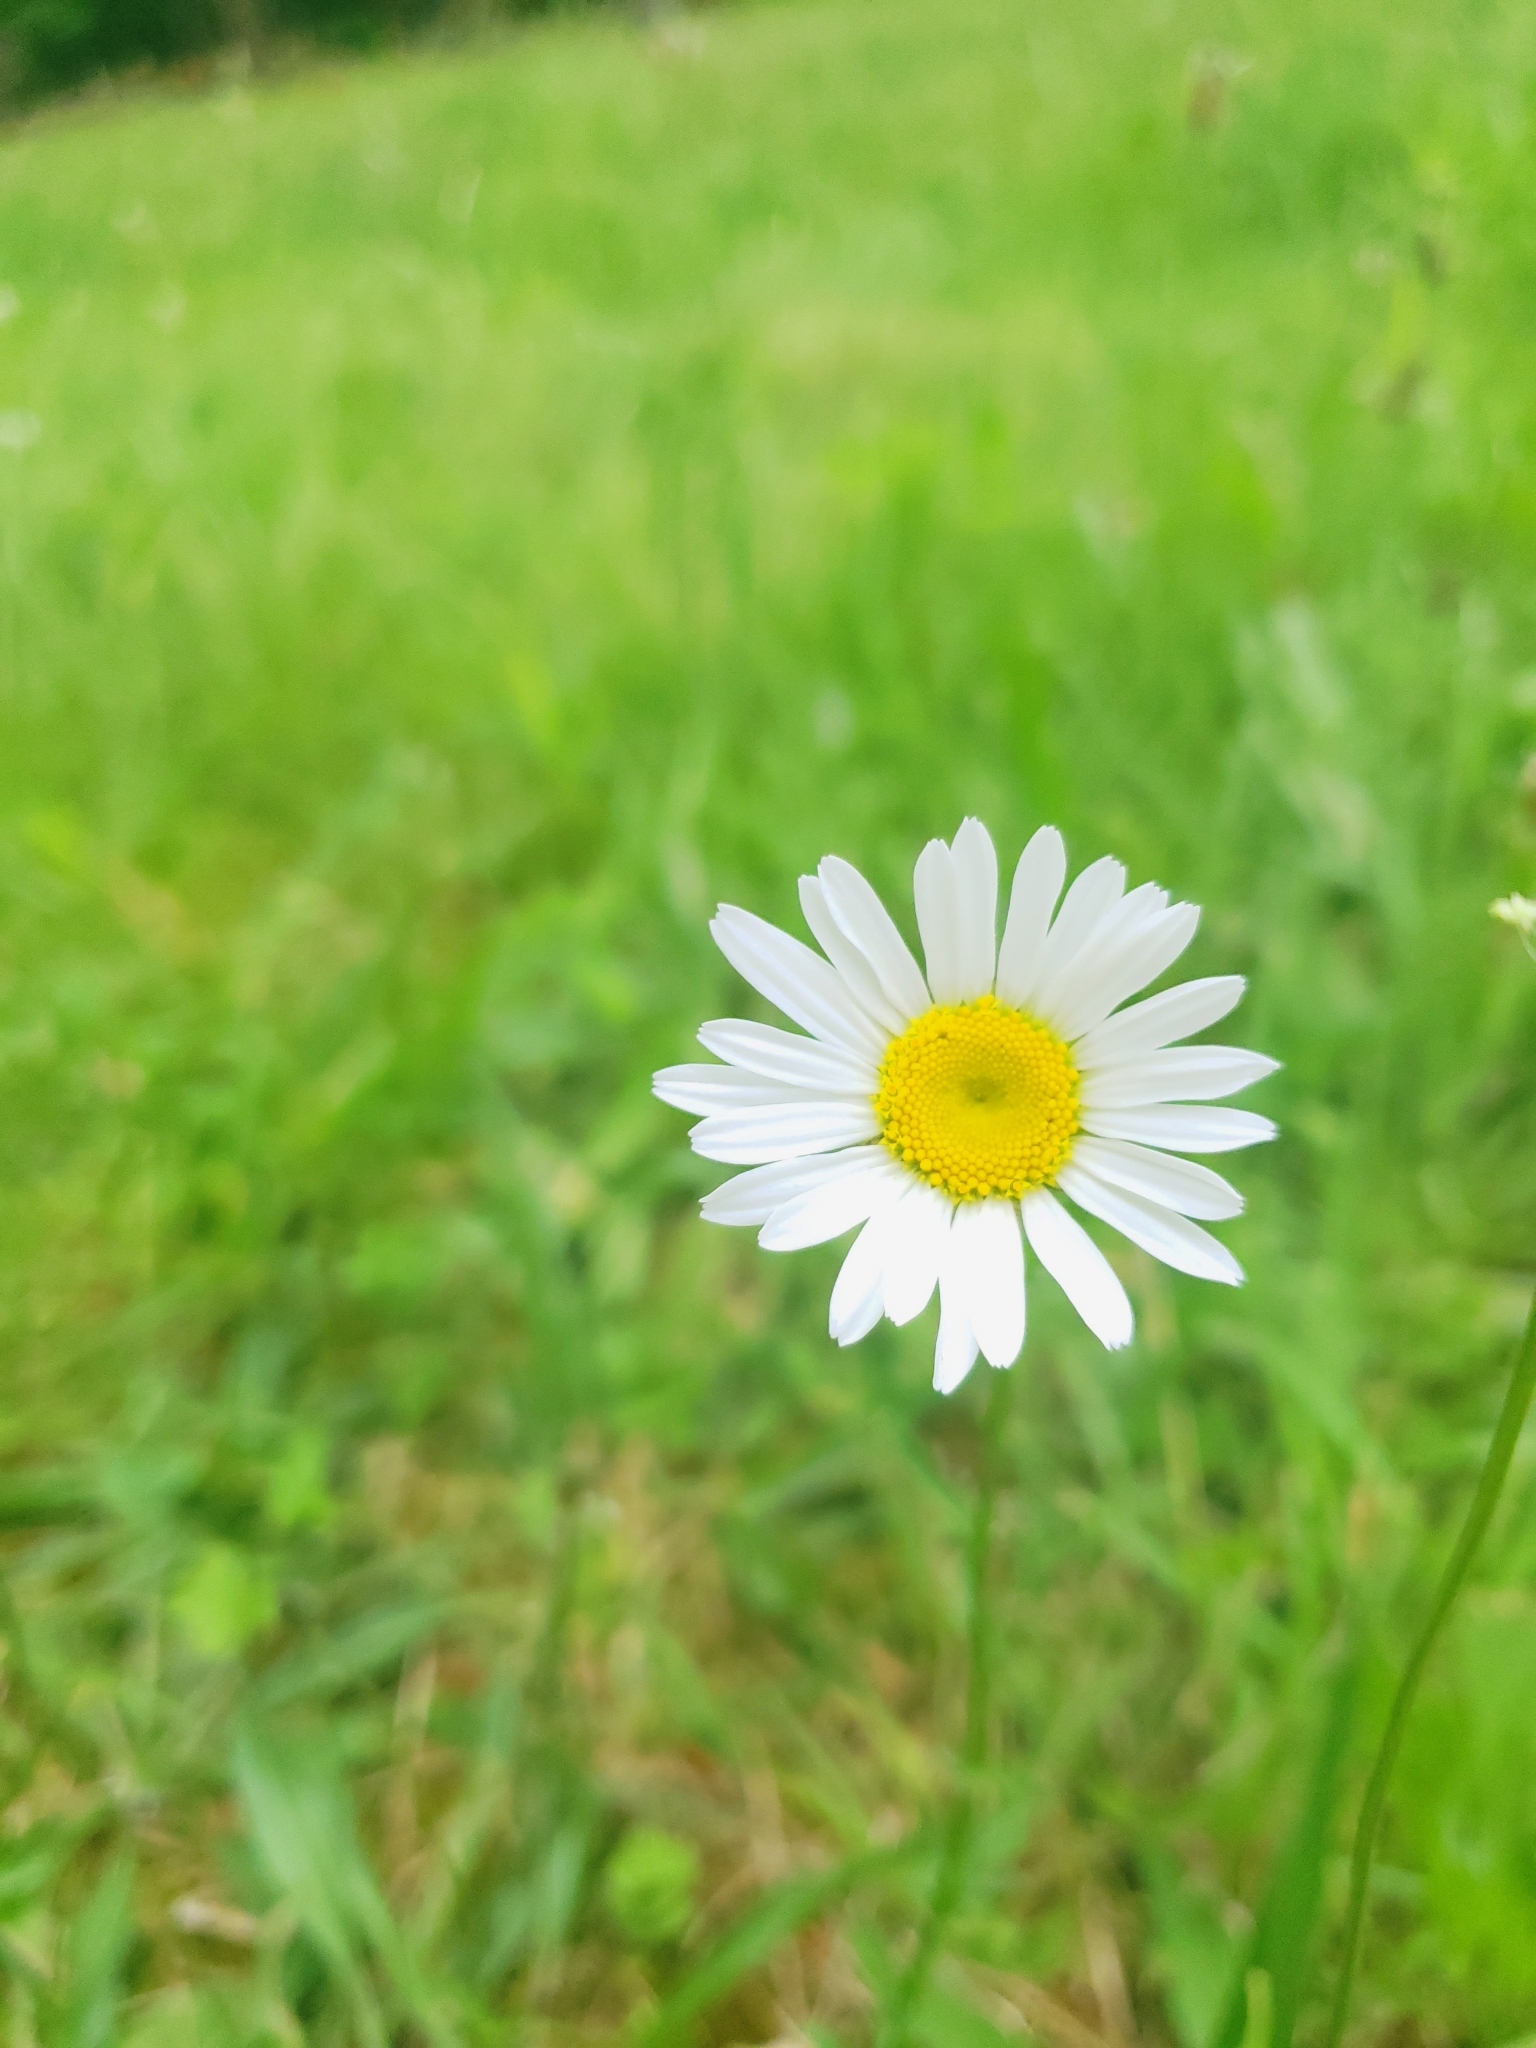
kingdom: Plantae
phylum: Tracheophyta
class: Magnoliopsida
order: Asterales
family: Asteraceae
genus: Leucanthemum
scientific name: Leucanthemum vulgare
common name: Oxeye daisy
